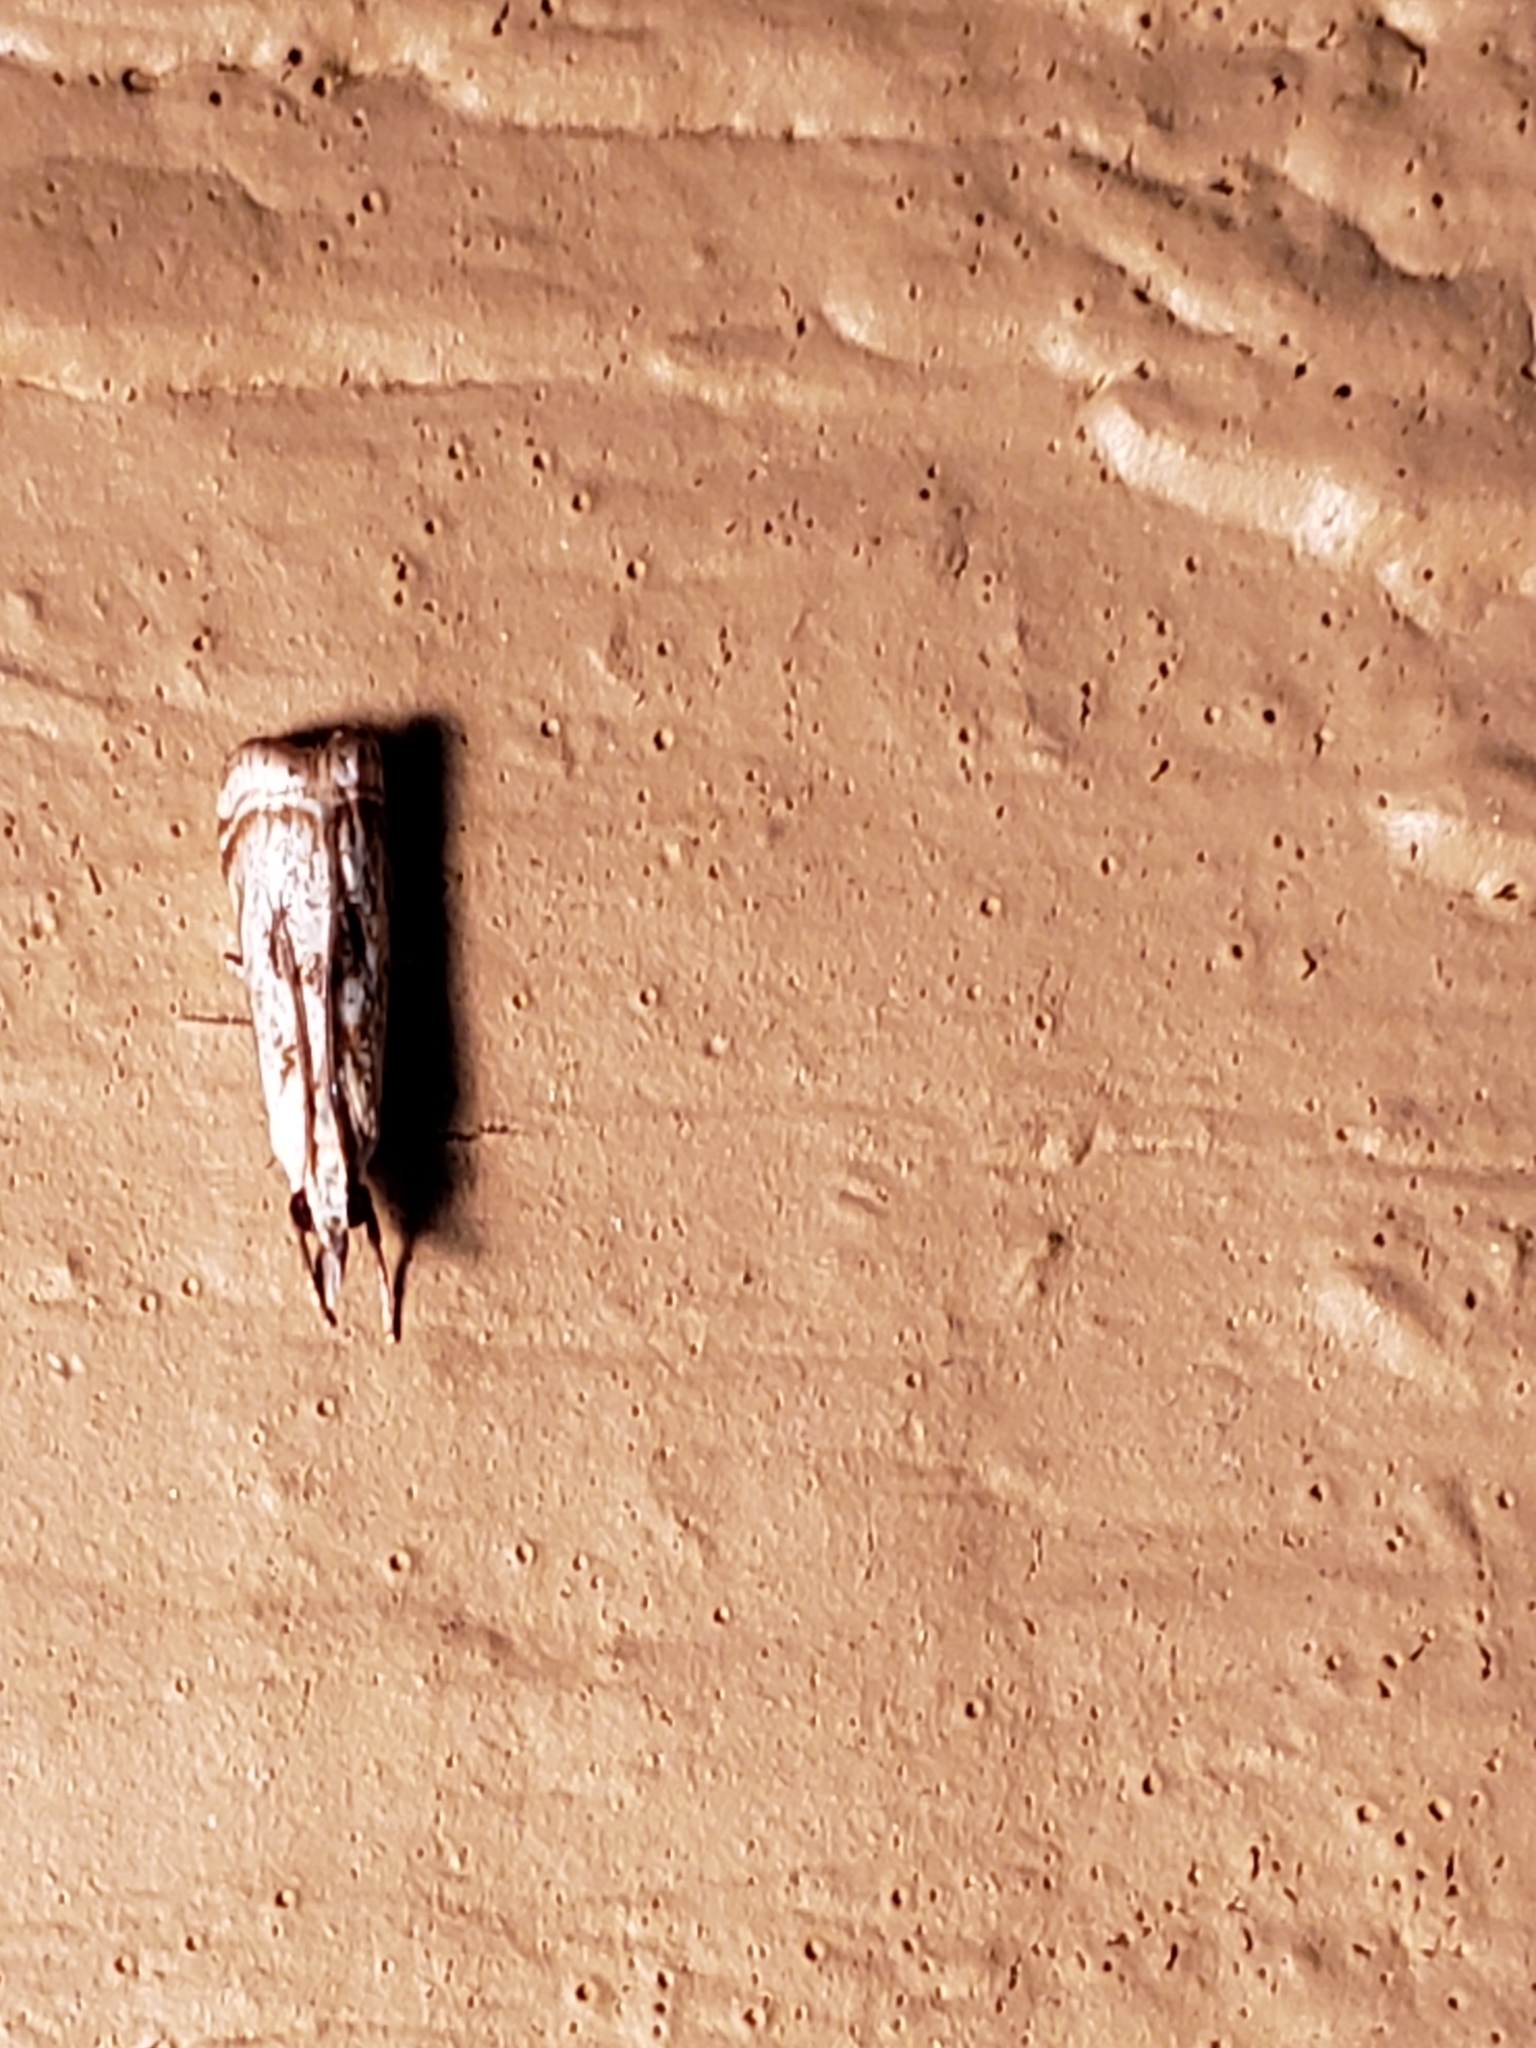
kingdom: Animalia
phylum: Arthropoda
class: Insecta
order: Lepidoptera
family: Crambidae
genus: Microcrambus
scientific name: Microcrambus elegans
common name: Elegant grass-veneer
